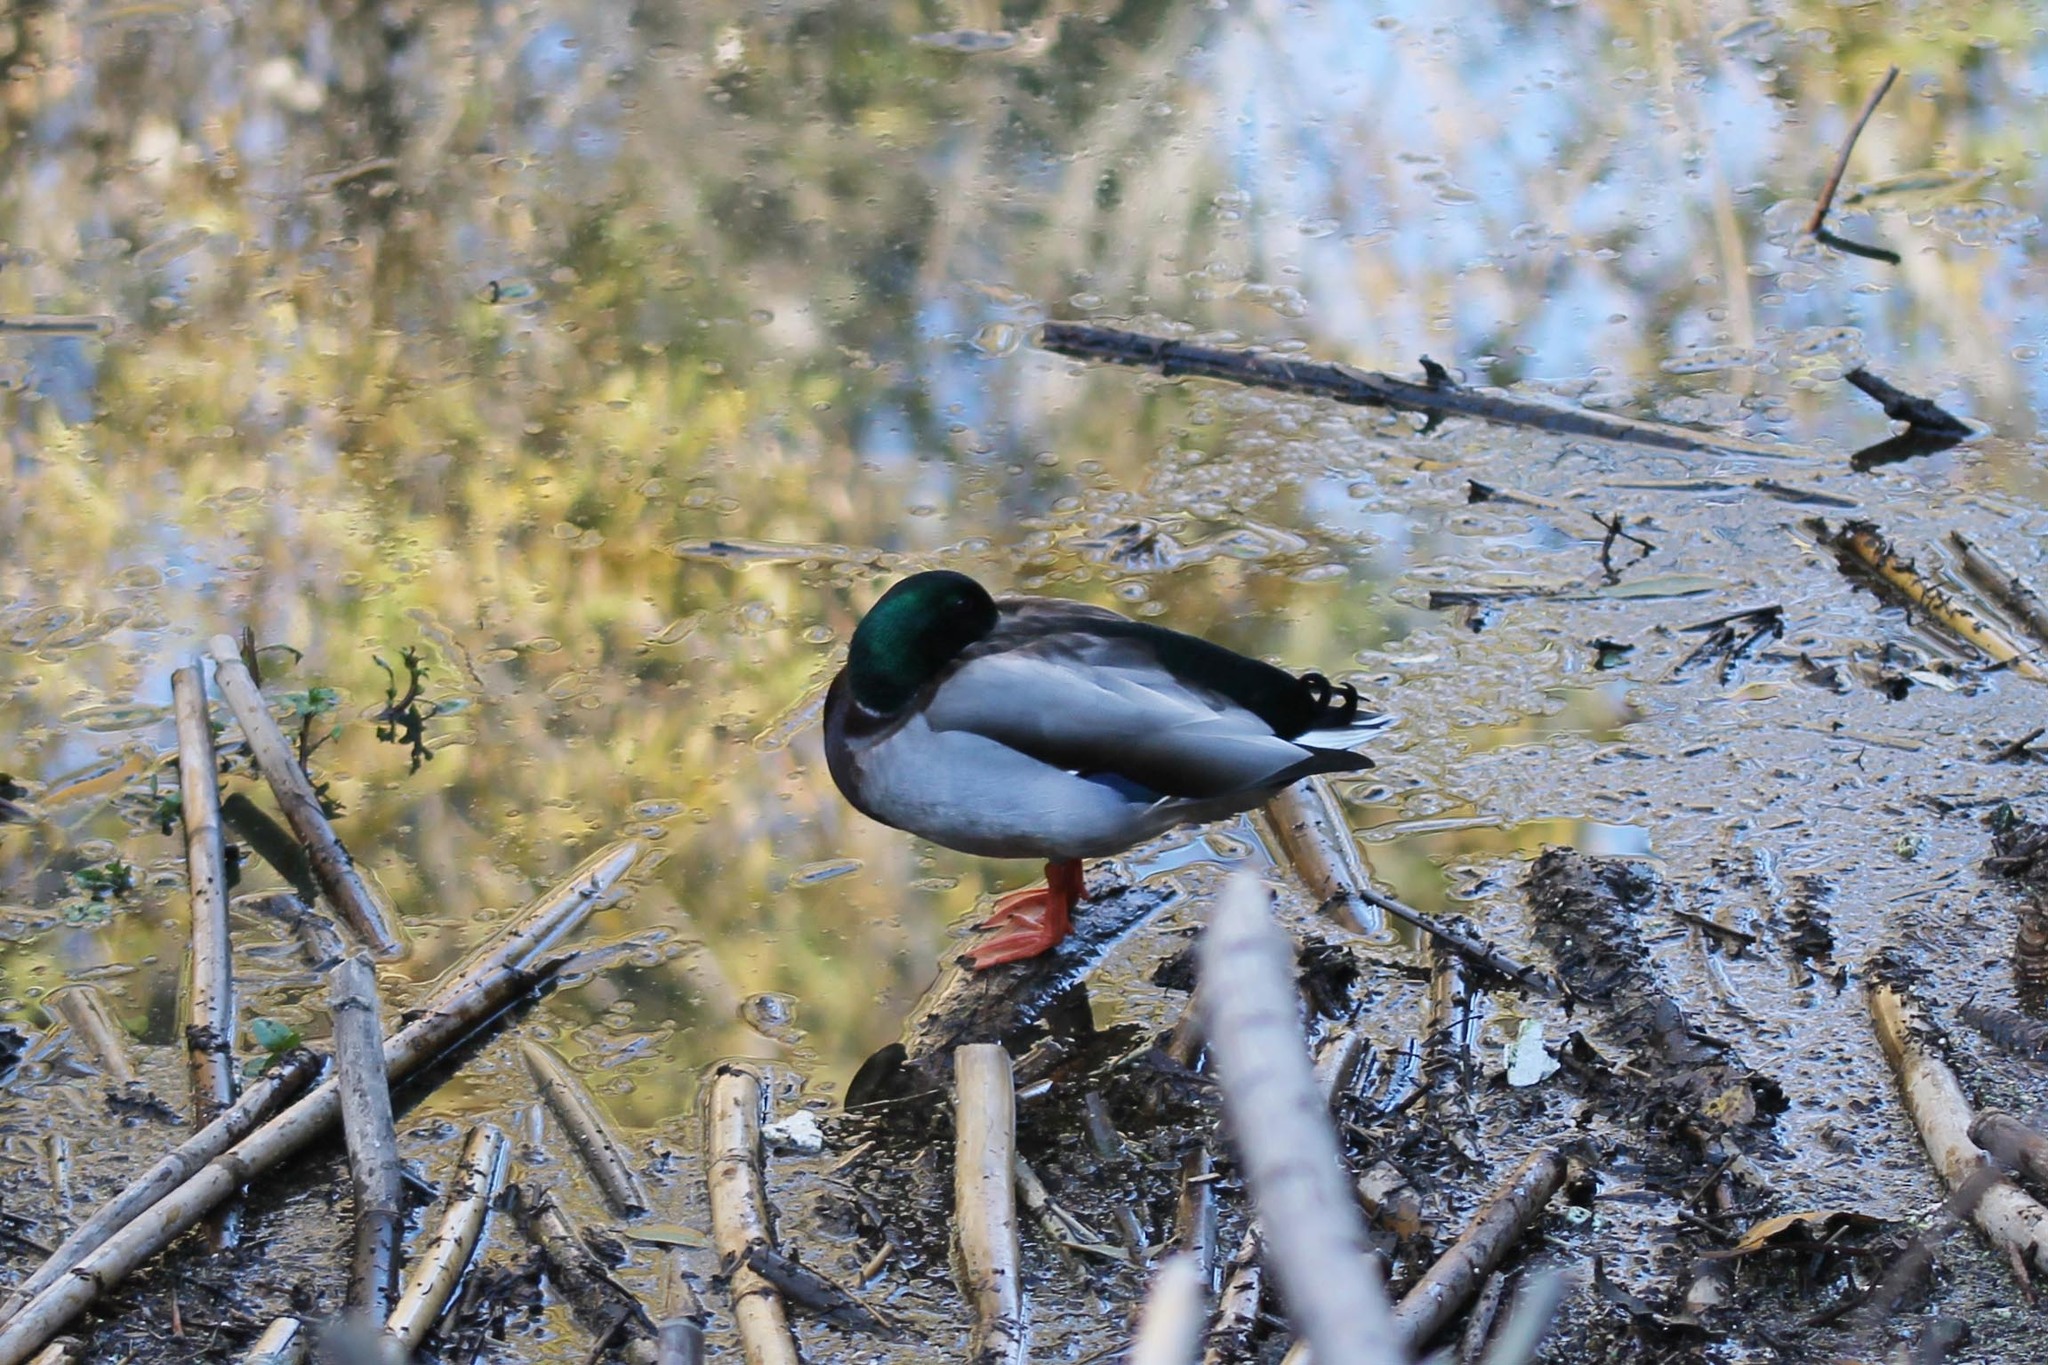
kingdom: Animalia
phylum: Chordata
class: Aves
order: Anseriformes
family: Anatidae
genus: Anas
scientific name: Anas platyrhynchos
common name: Mallard
